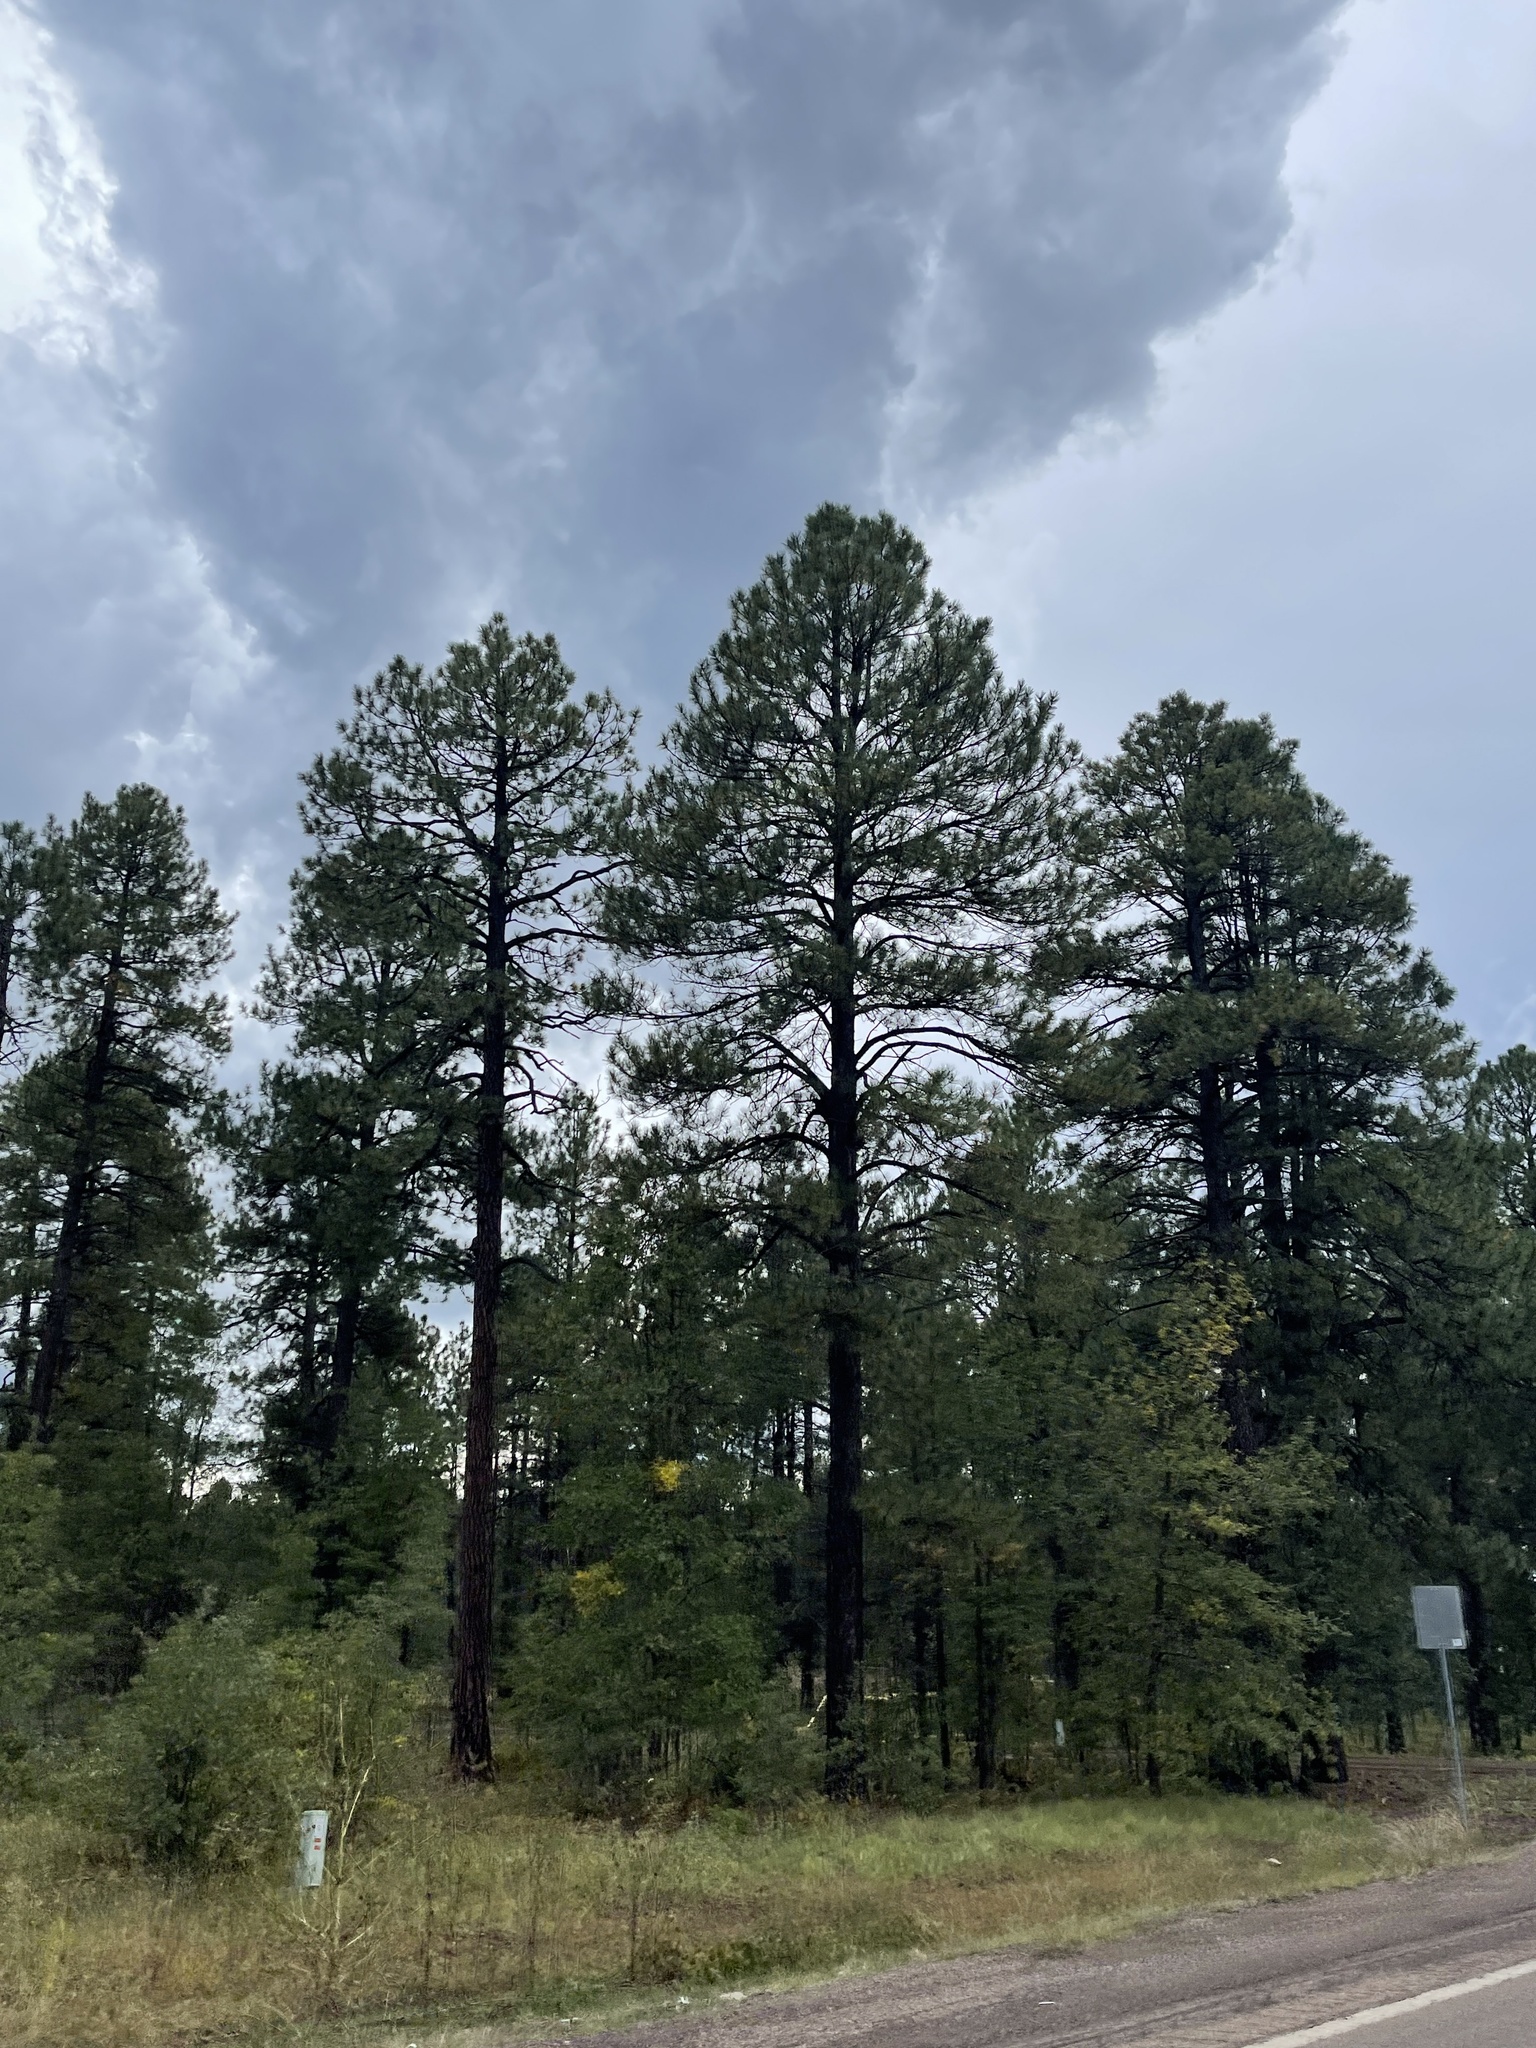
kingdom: Plantae
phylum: Tracheophyta
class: Pinopsida
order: Pinales
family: Pinaceae
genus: Pinus
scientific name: Pinus ponderosa
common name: Western yellow-pine
